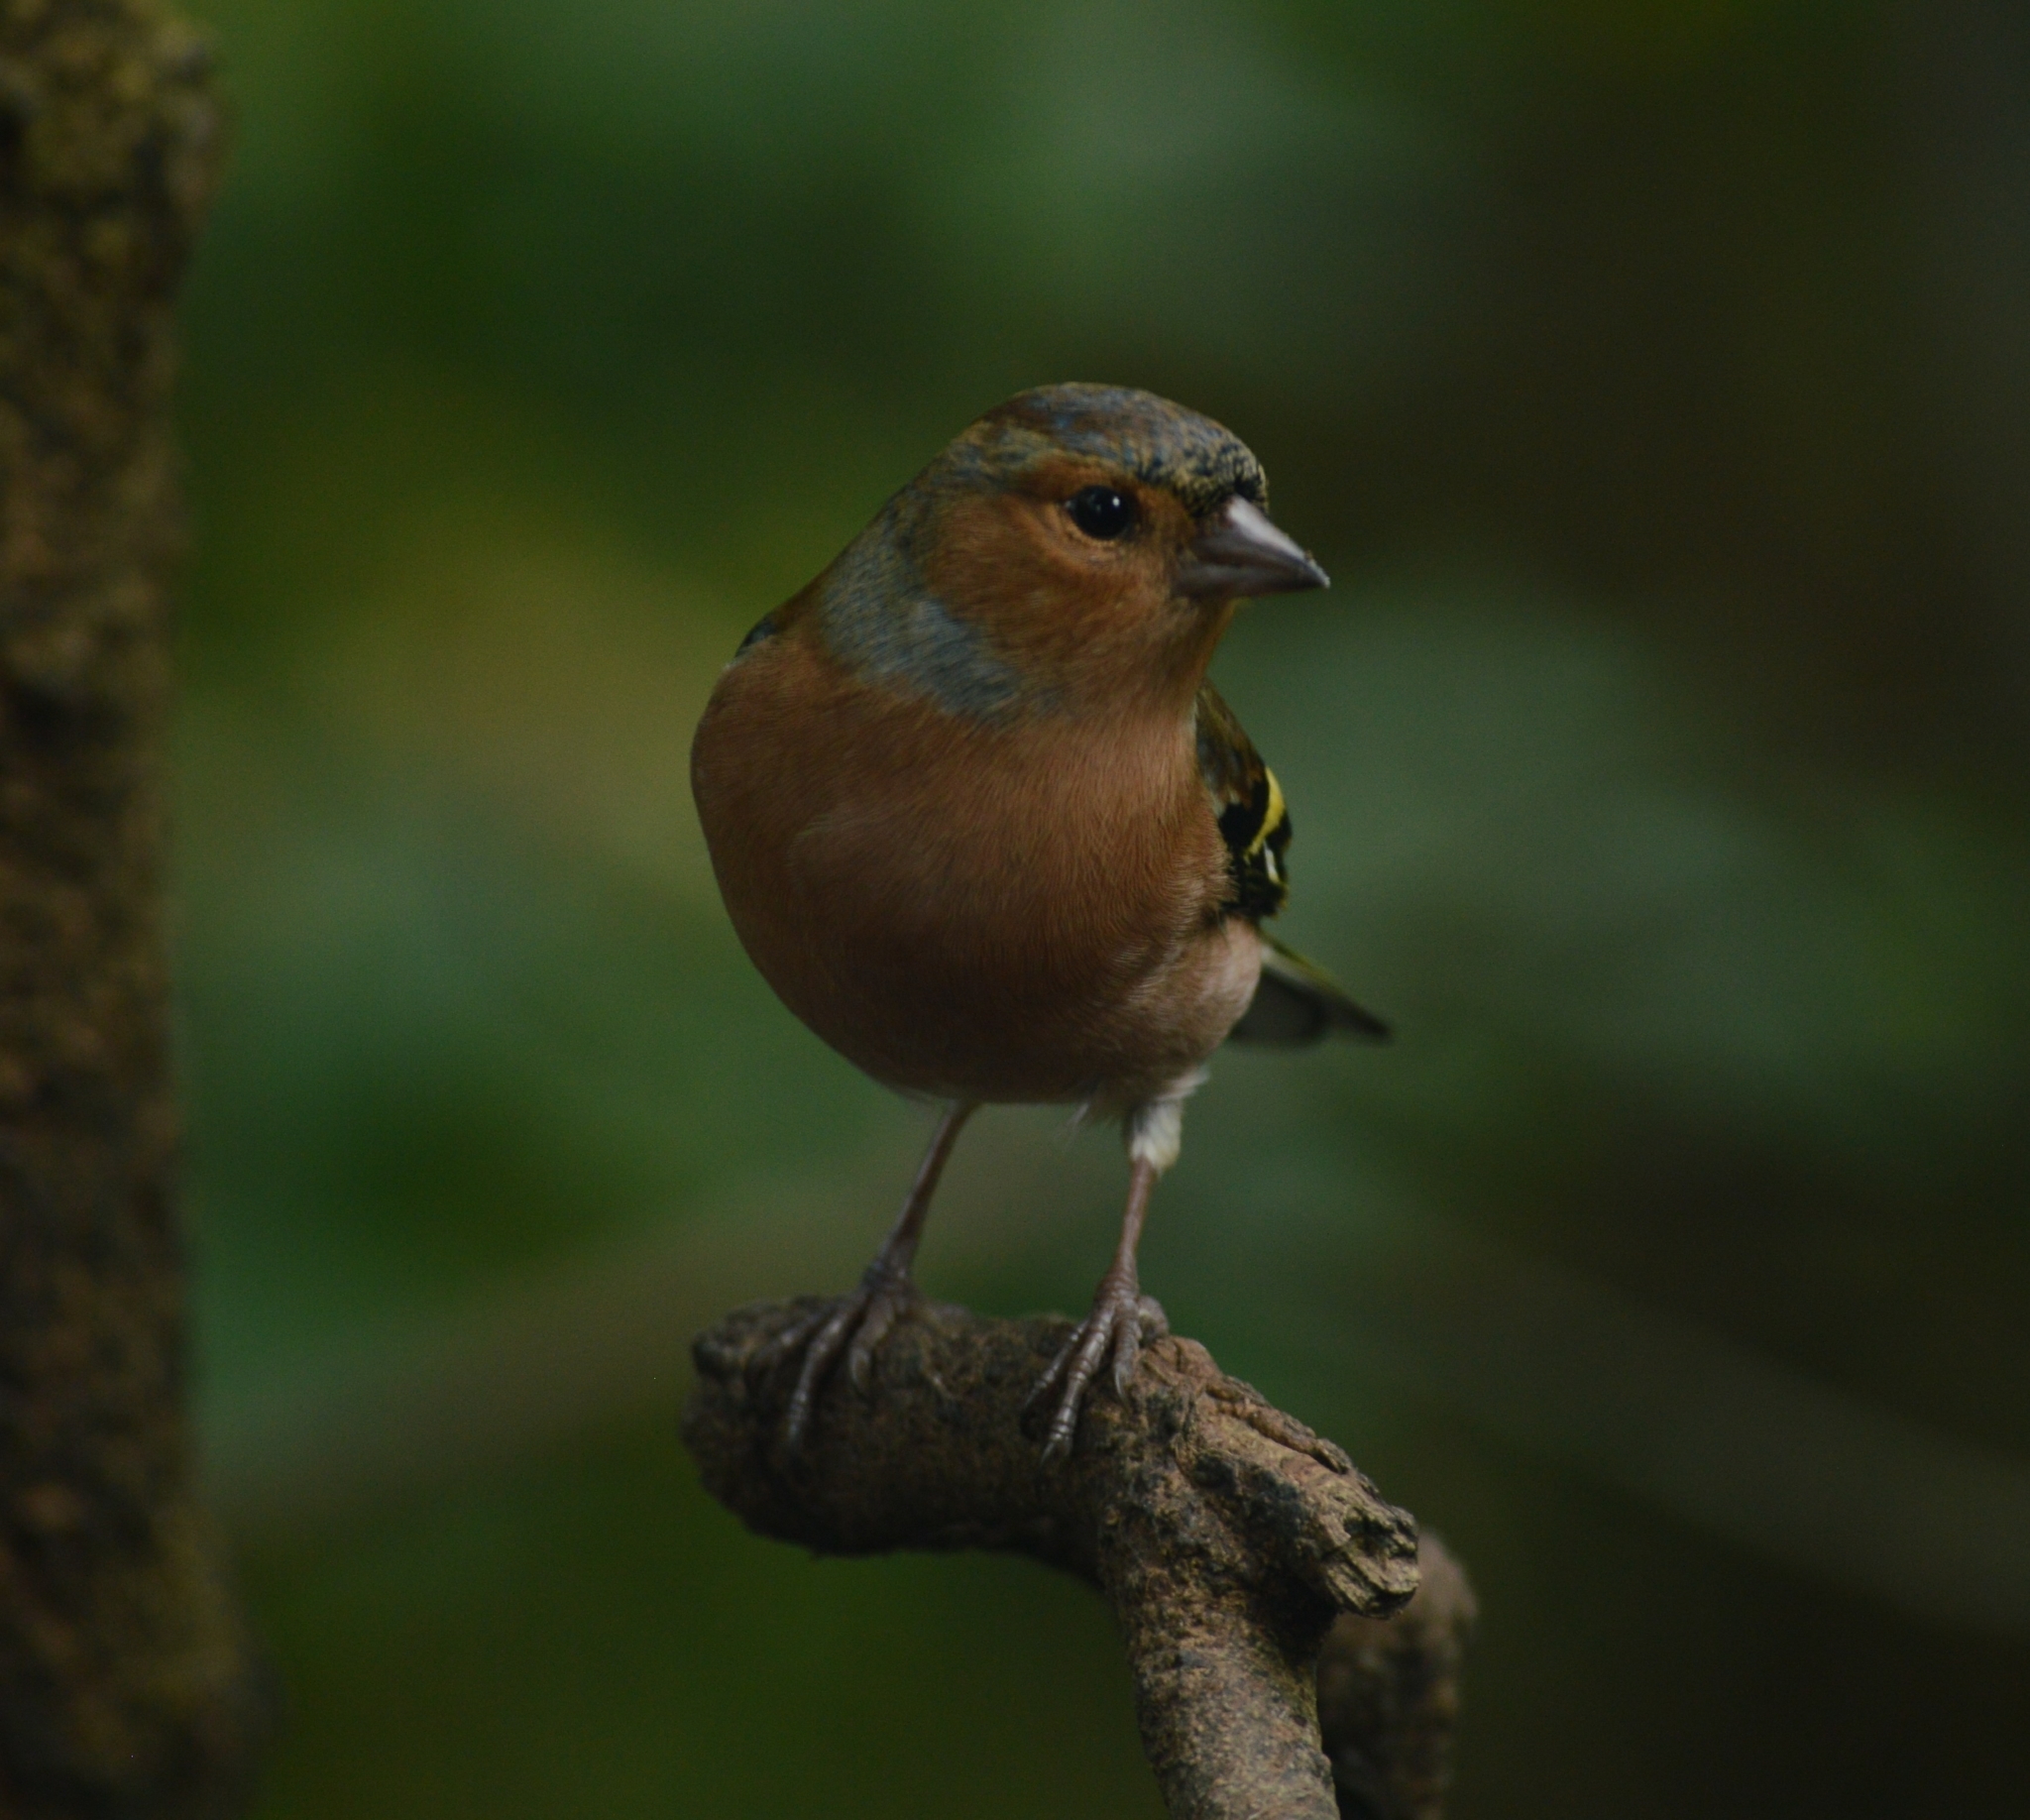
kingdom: Animalia
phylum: Chordata
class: Aves
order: Passeriformes
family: Fringillidae
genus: Fringilla
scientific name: Fringilla coelebs
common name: Common chaffinch
